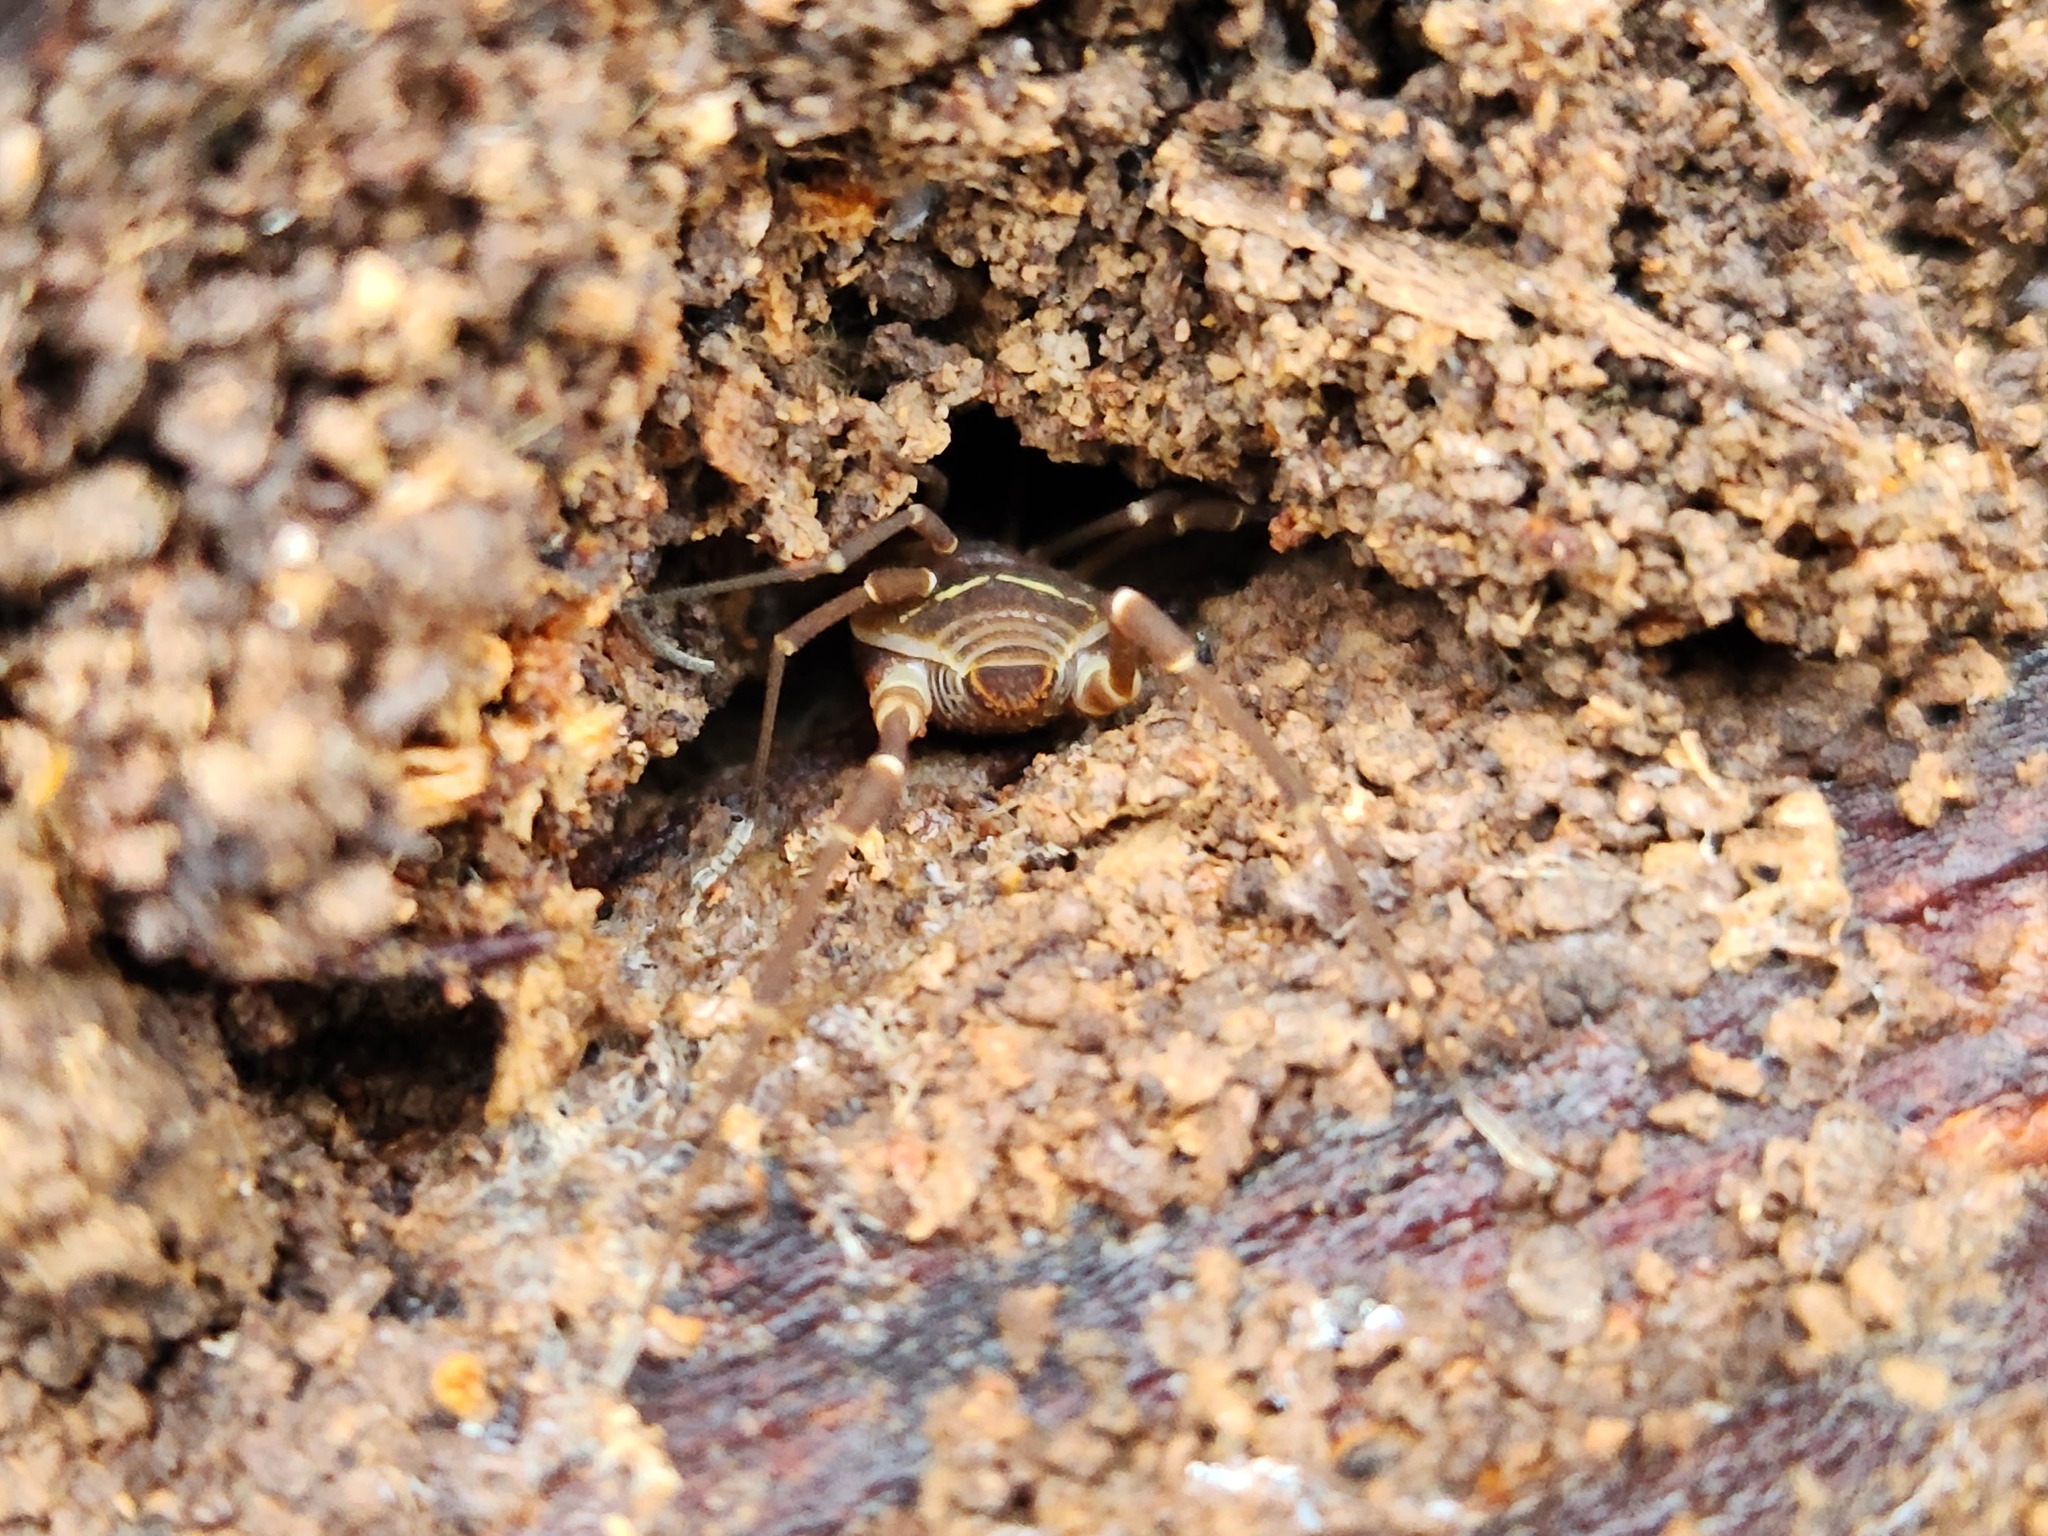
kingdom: Animalia
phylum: Arthropoda
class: Arachnida
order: Opiliones
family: Cosmetidae
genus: Libitioides
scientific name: Libitioides sayi
